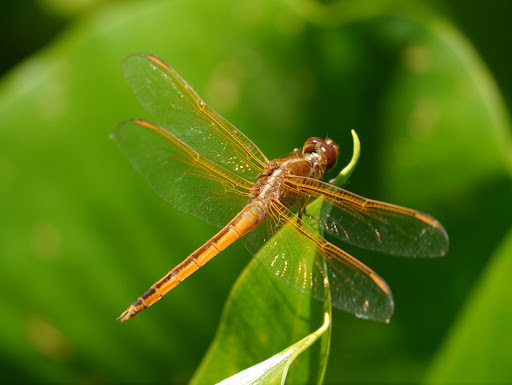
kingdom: Animalia
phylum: Arthropoda
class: Insecta
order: Odonata
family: Libellulidae
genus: Libellula
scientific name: Libellula needhami
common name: Needham's skimmer
